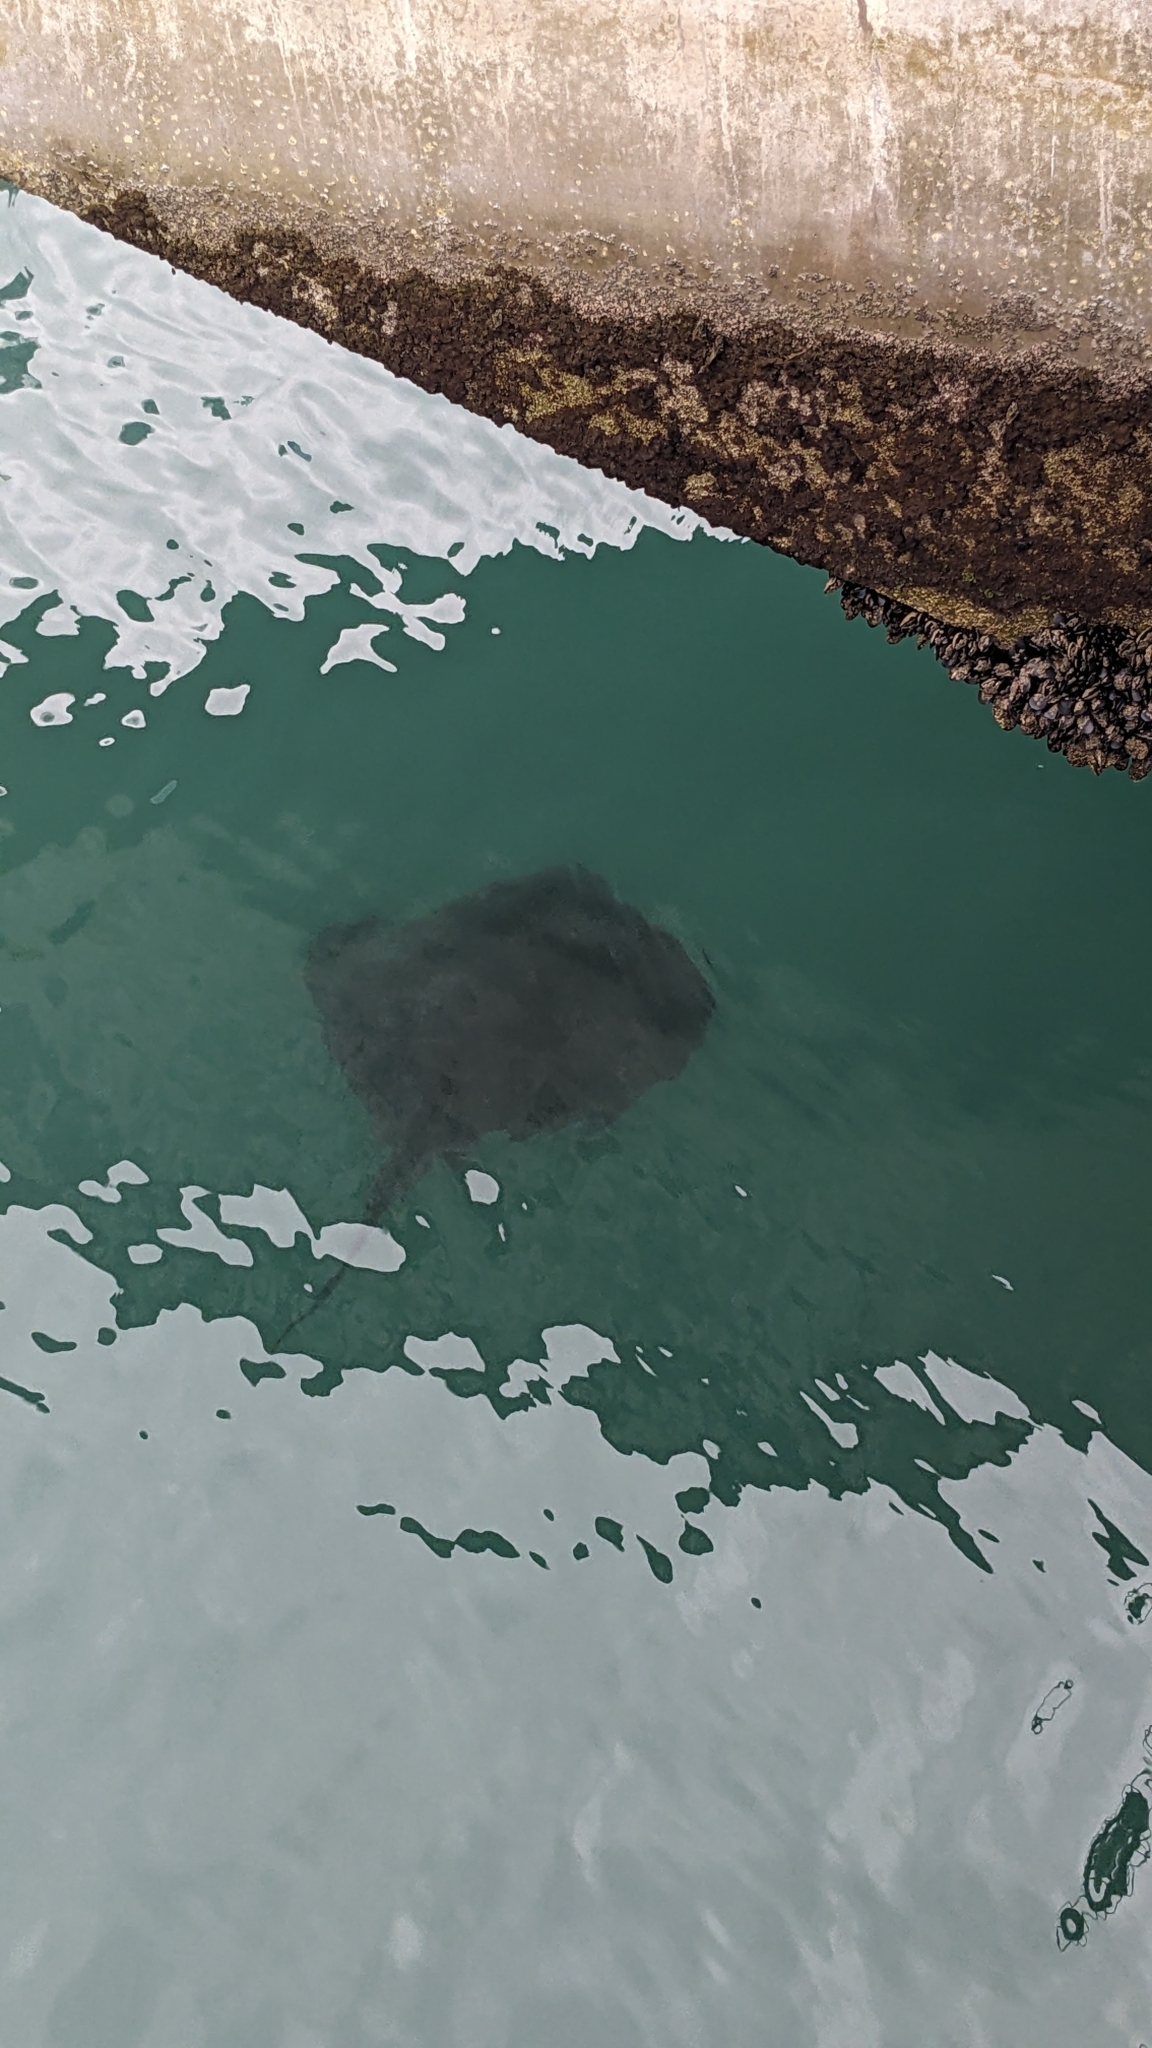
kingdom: Animalia
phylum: Chordata
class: Elasmobranchii
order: Myliobatiformes
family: Dasyatidae
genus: Bathytoshia
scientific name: Bathytoshia brevicaudata
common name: Short-tail stingray
